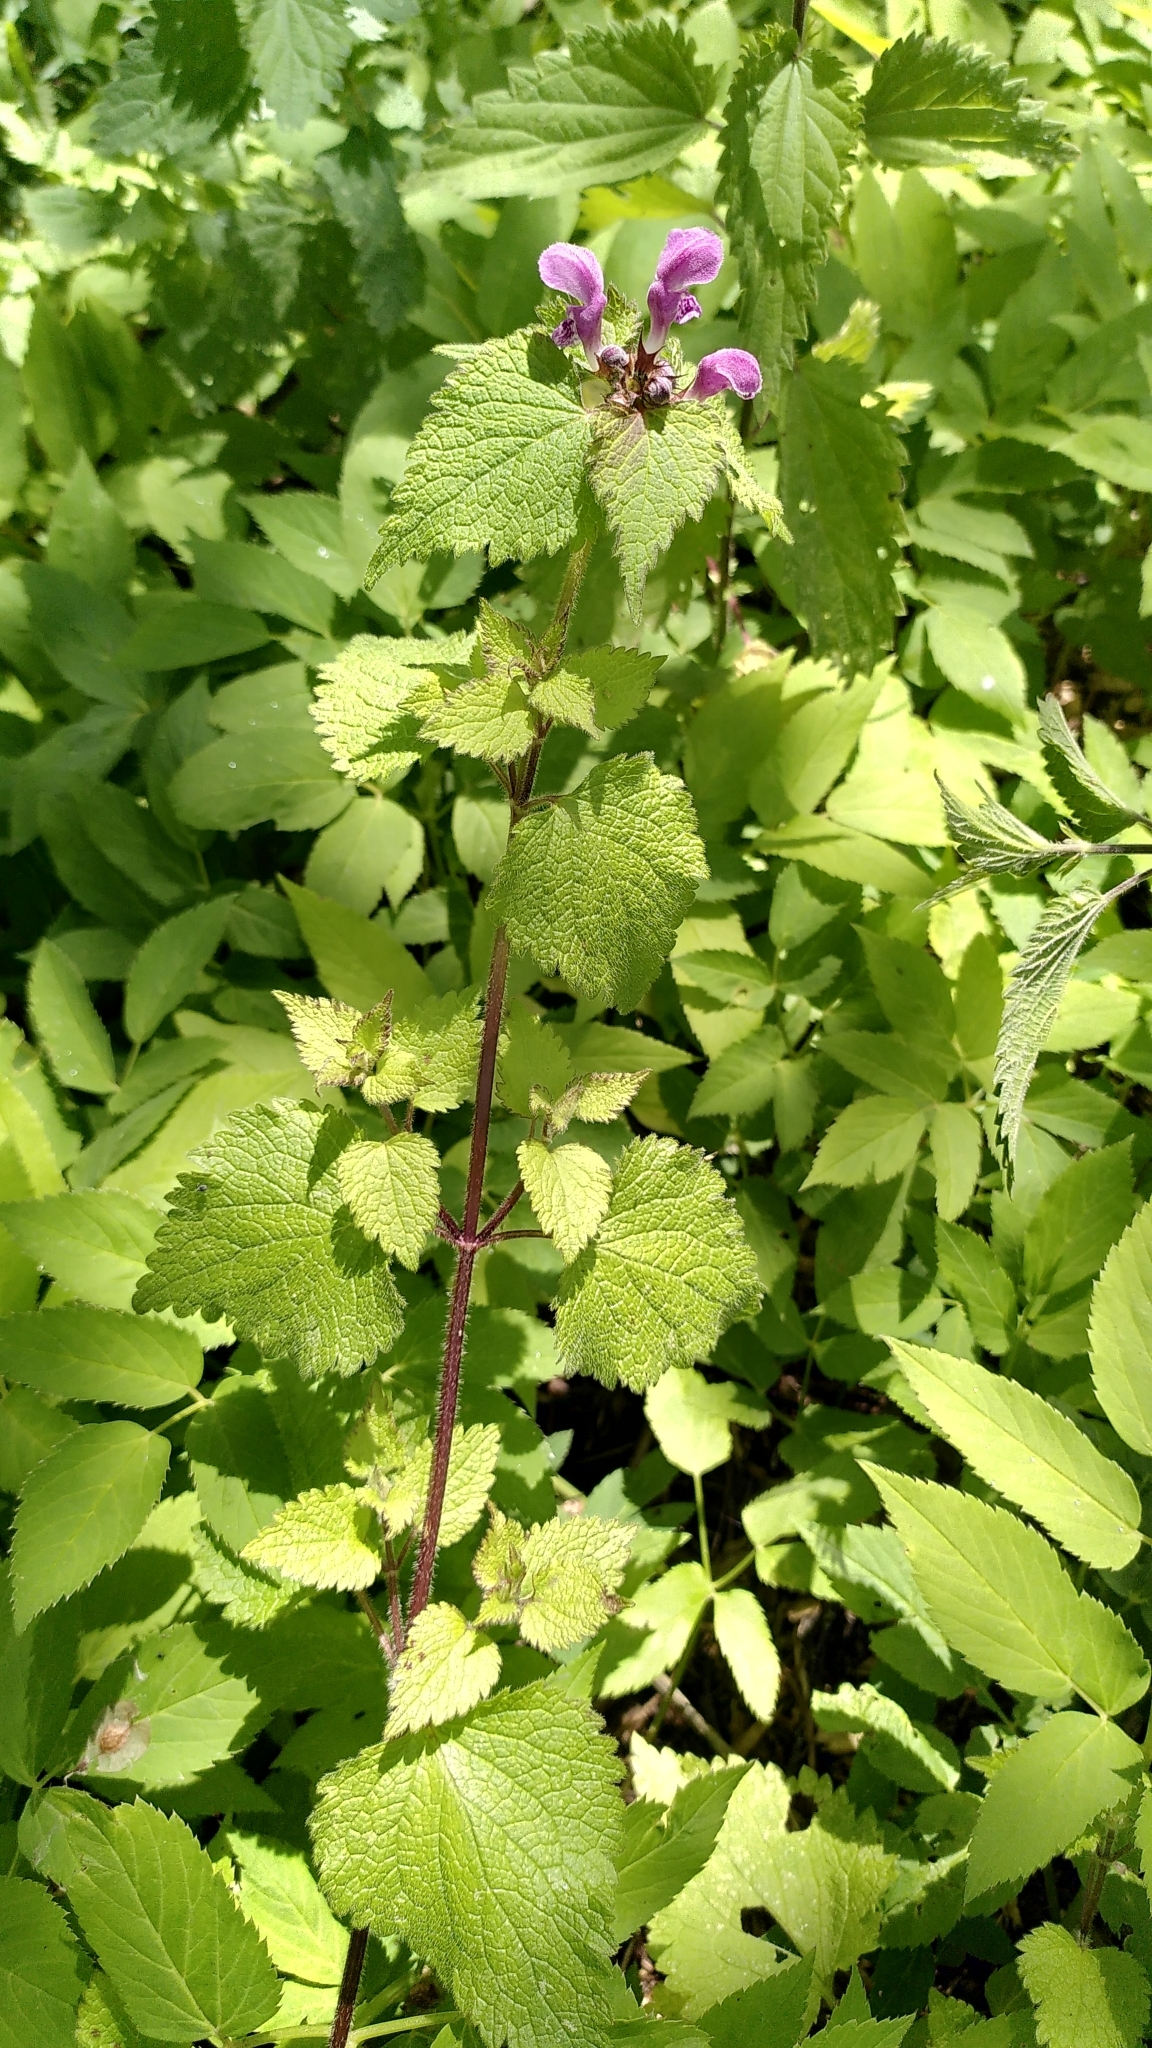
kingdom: Plantae
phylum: Tracheophyta
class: Magnoliopsida
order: Lamiales
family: Lamiaceae
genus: Lamium
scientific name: Lamium maculatum
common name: Spotted dead-nettle
